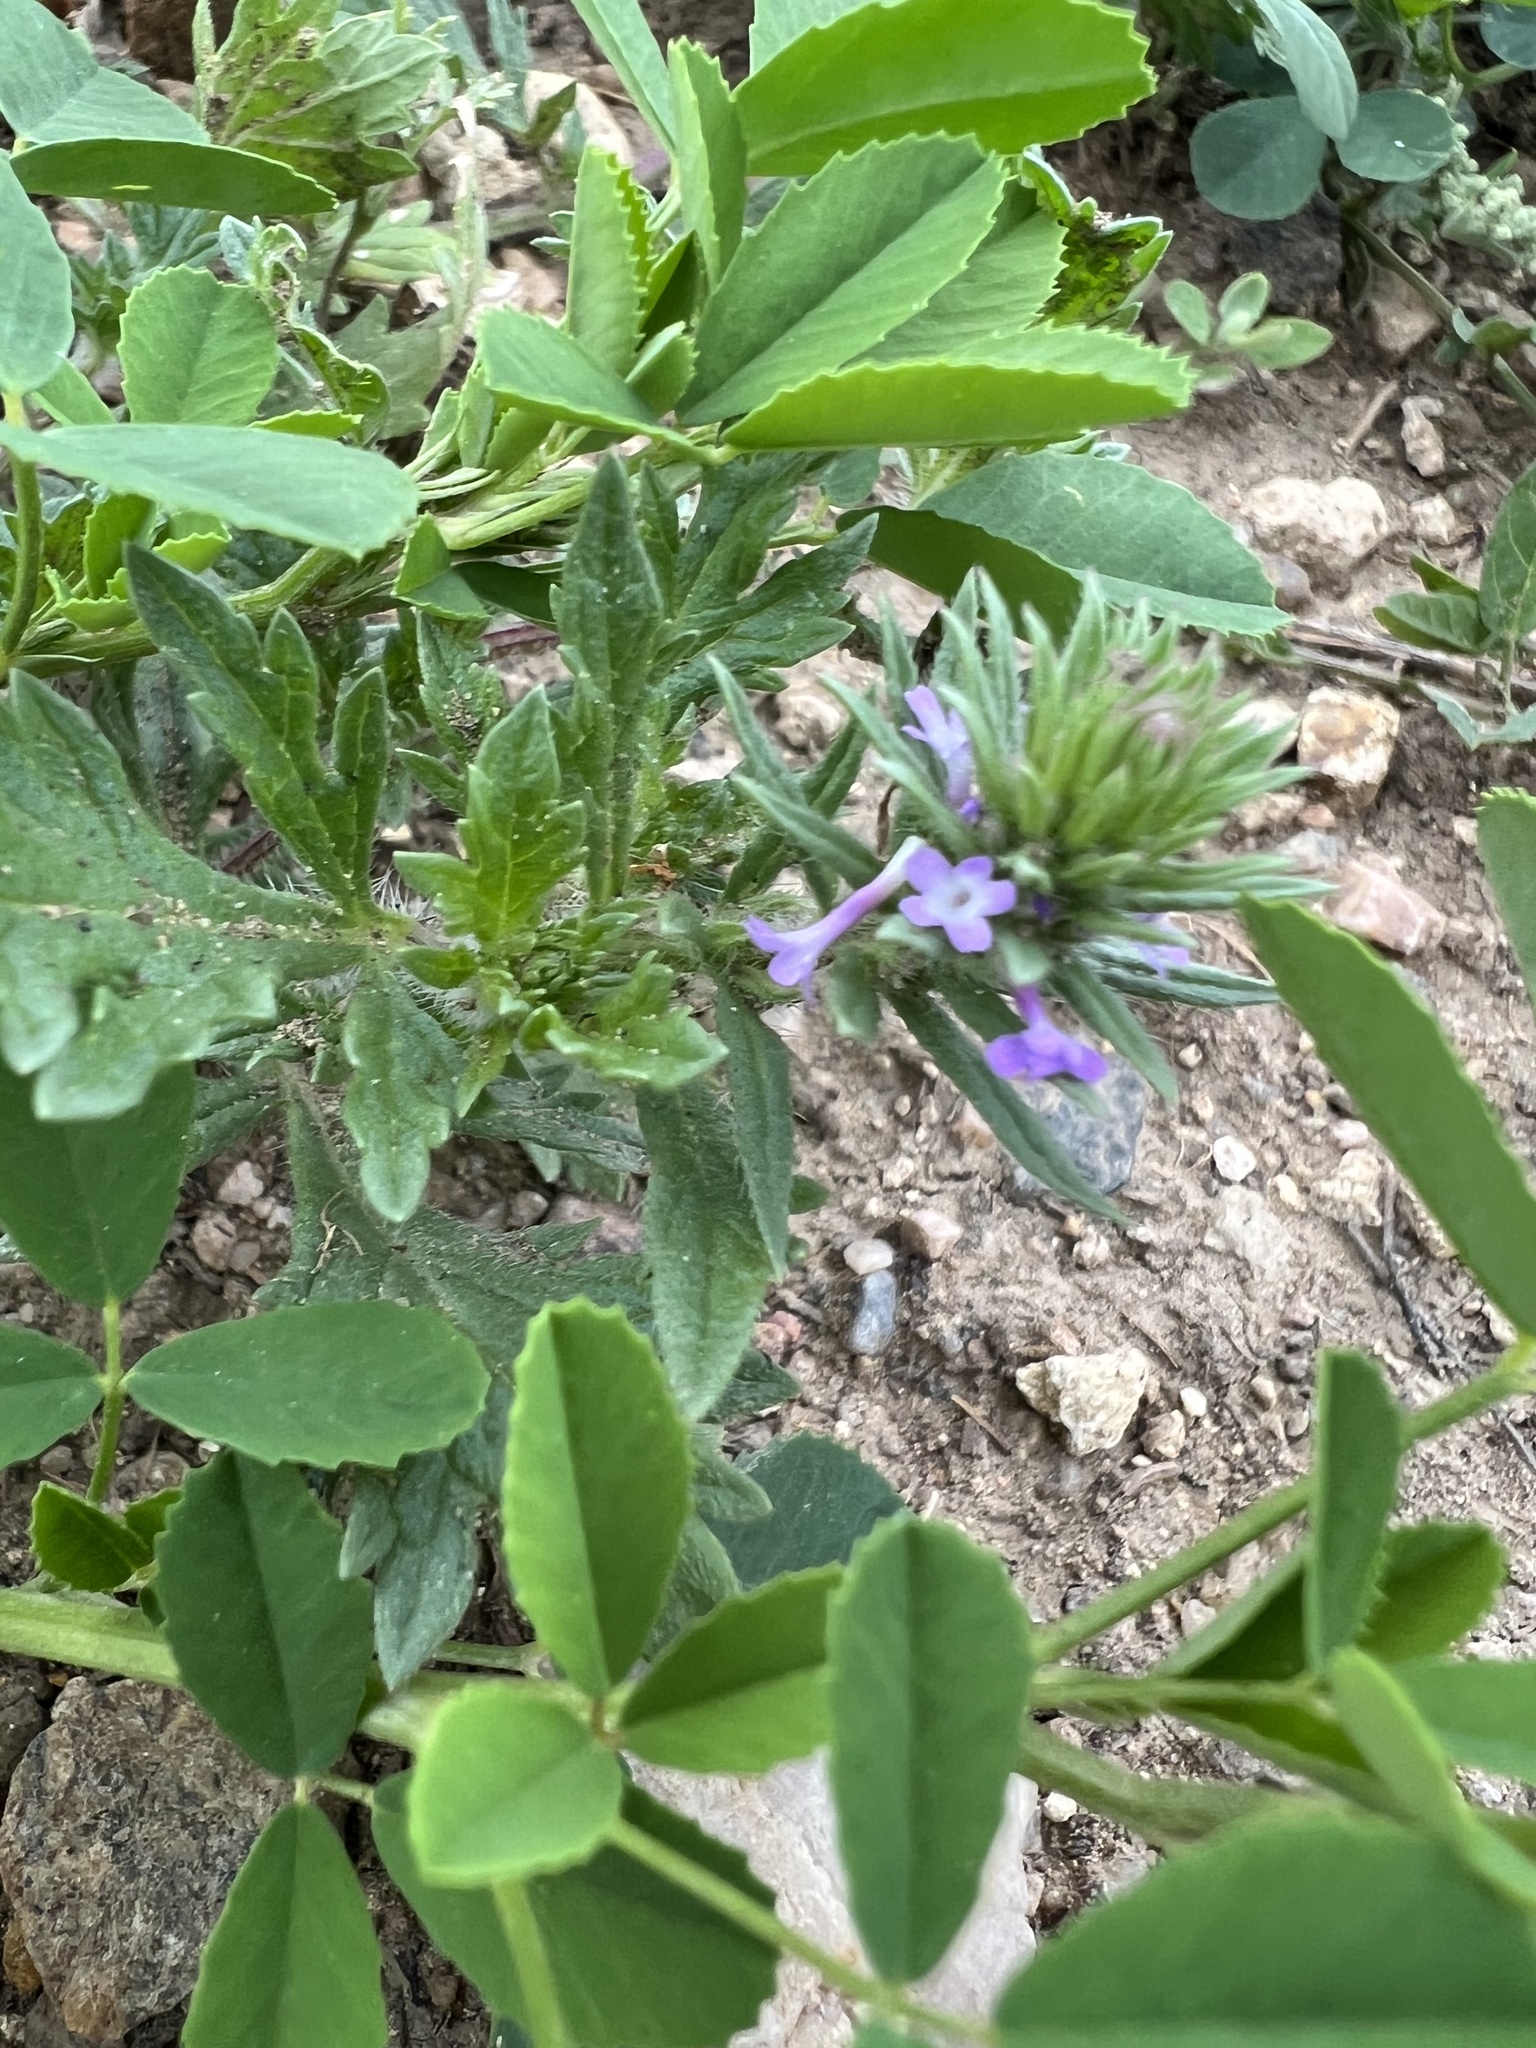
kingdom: Plantae
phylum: Tracheophyta
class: Magnoliopsida
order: Lamiales
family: Verbenaceae
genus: Verbena
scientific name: Verbena bracteata
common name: Bracted vervain
